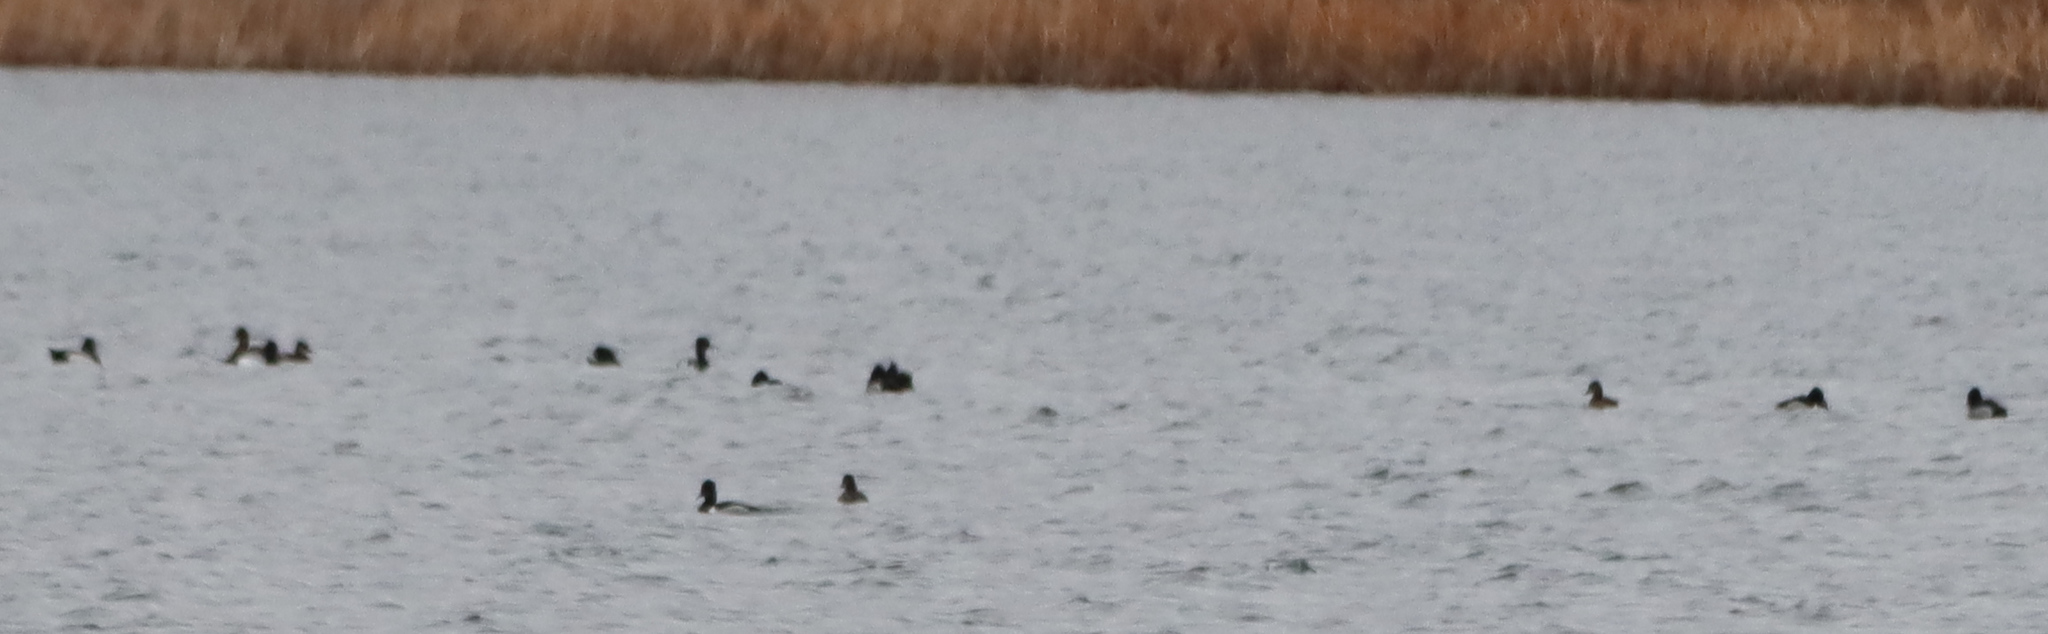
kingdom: Animalia
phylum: Chordata
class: Aves
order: Anseriformes
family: Anatidae
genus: Aythya
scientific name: Aythya collaris
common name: Ring-necked duck
